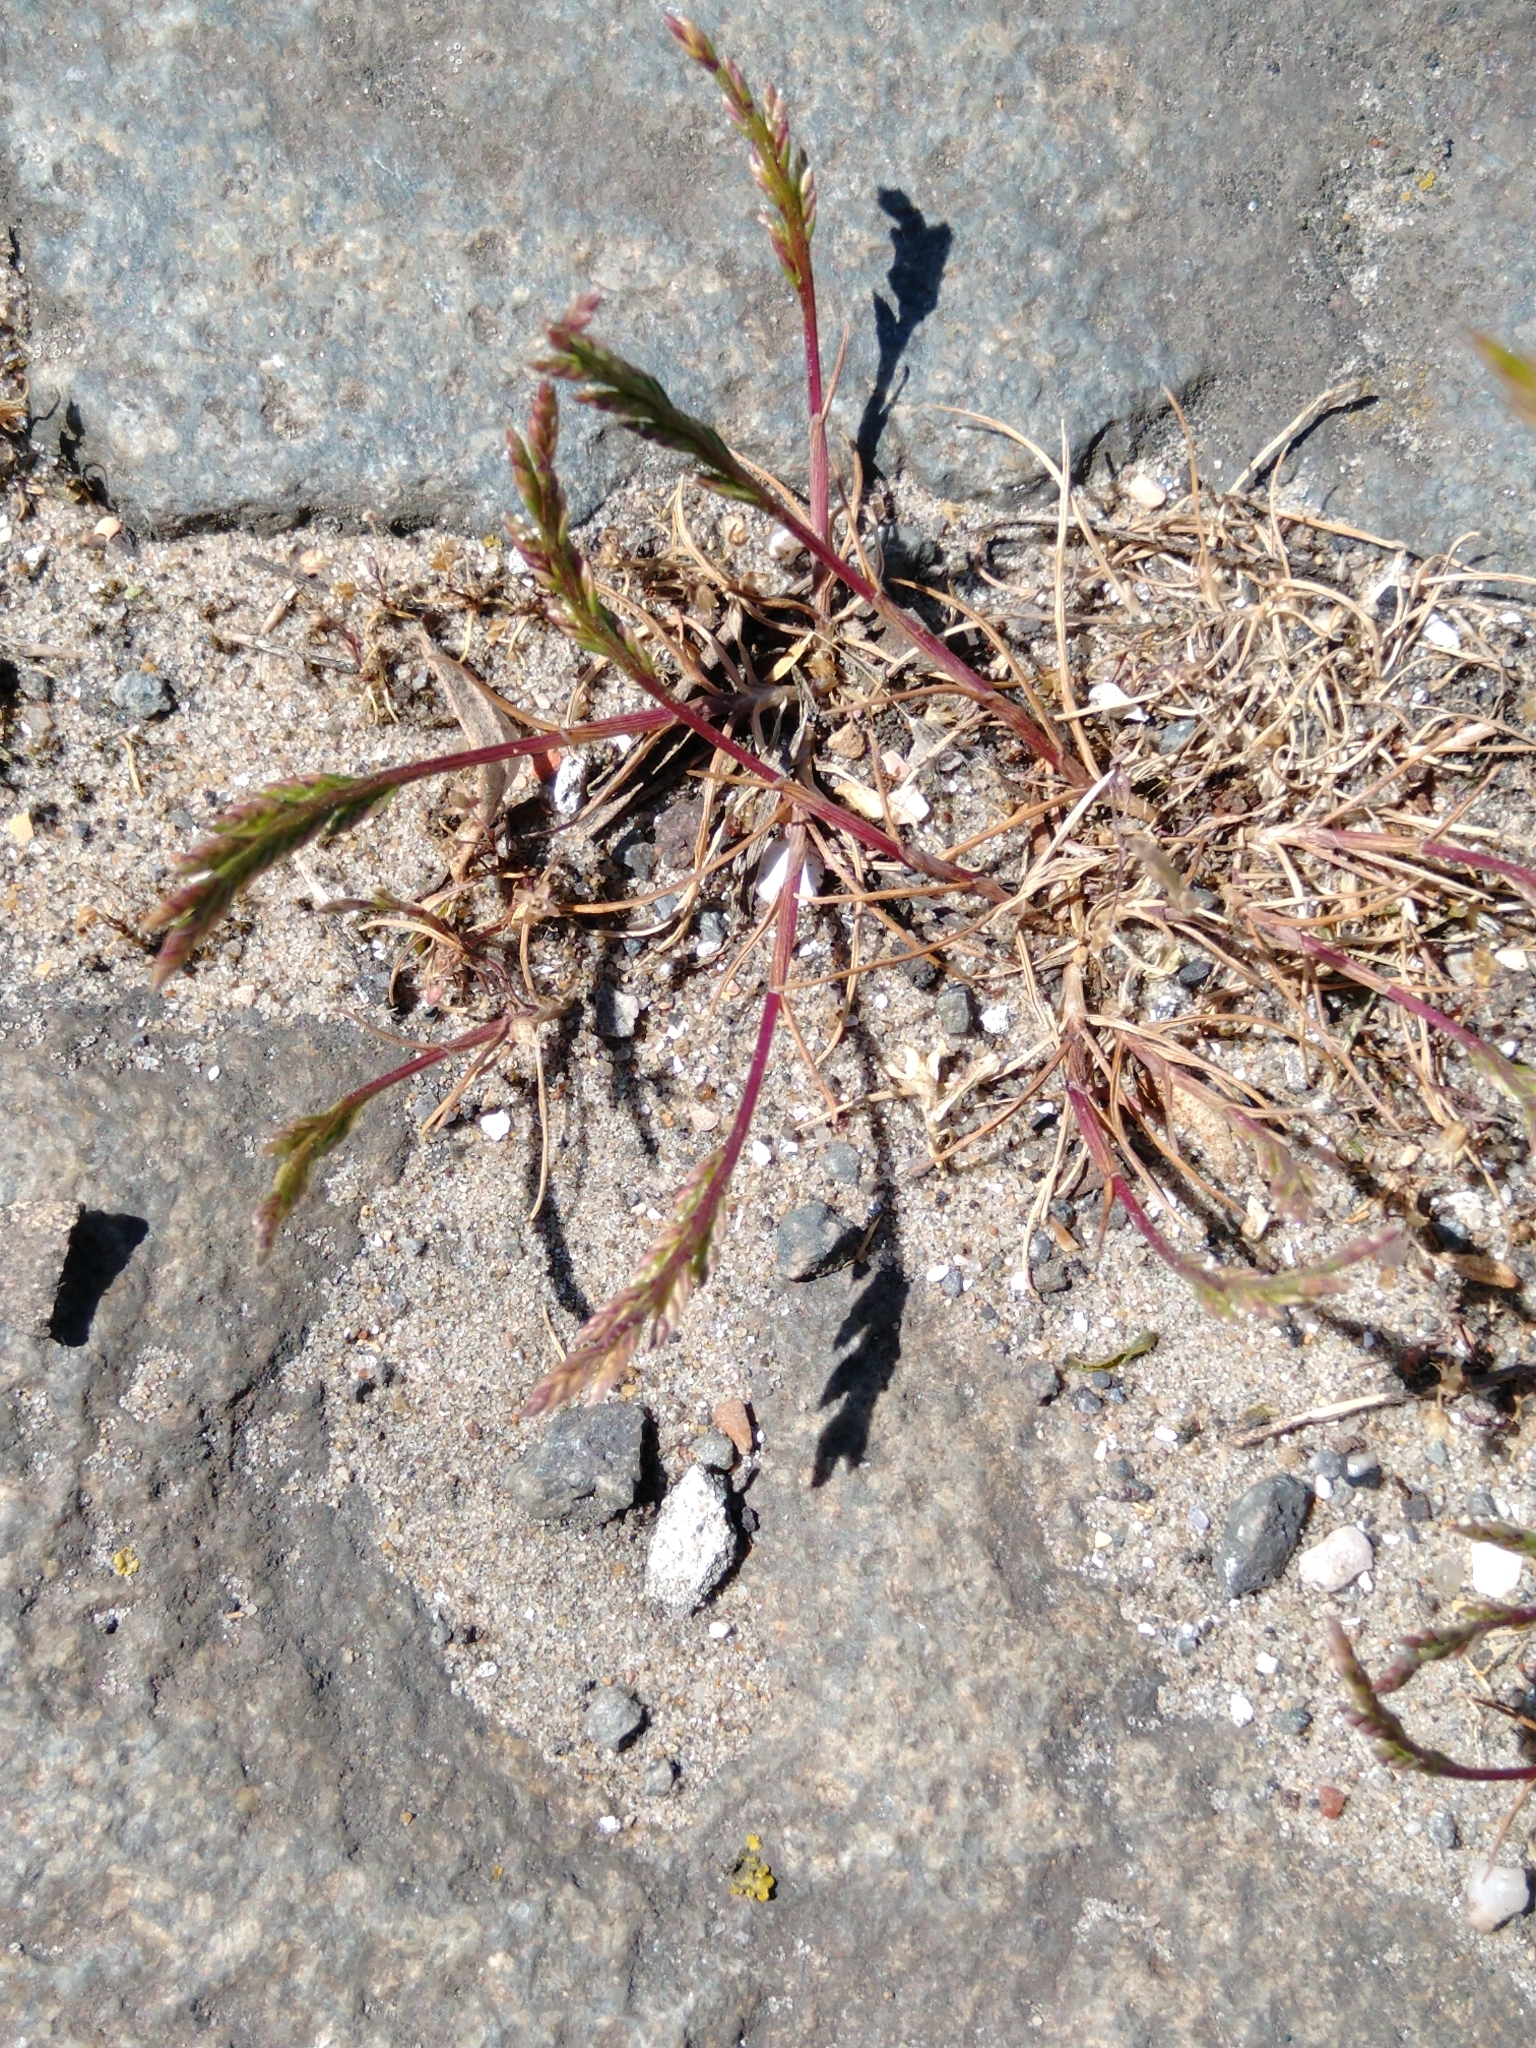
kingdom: Plantae
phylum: Tracheophyta
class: Liliopsida
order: Poales
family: Poaceae
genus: Catapodium
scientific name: Catapodium marinum
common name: Sea fern-grass
